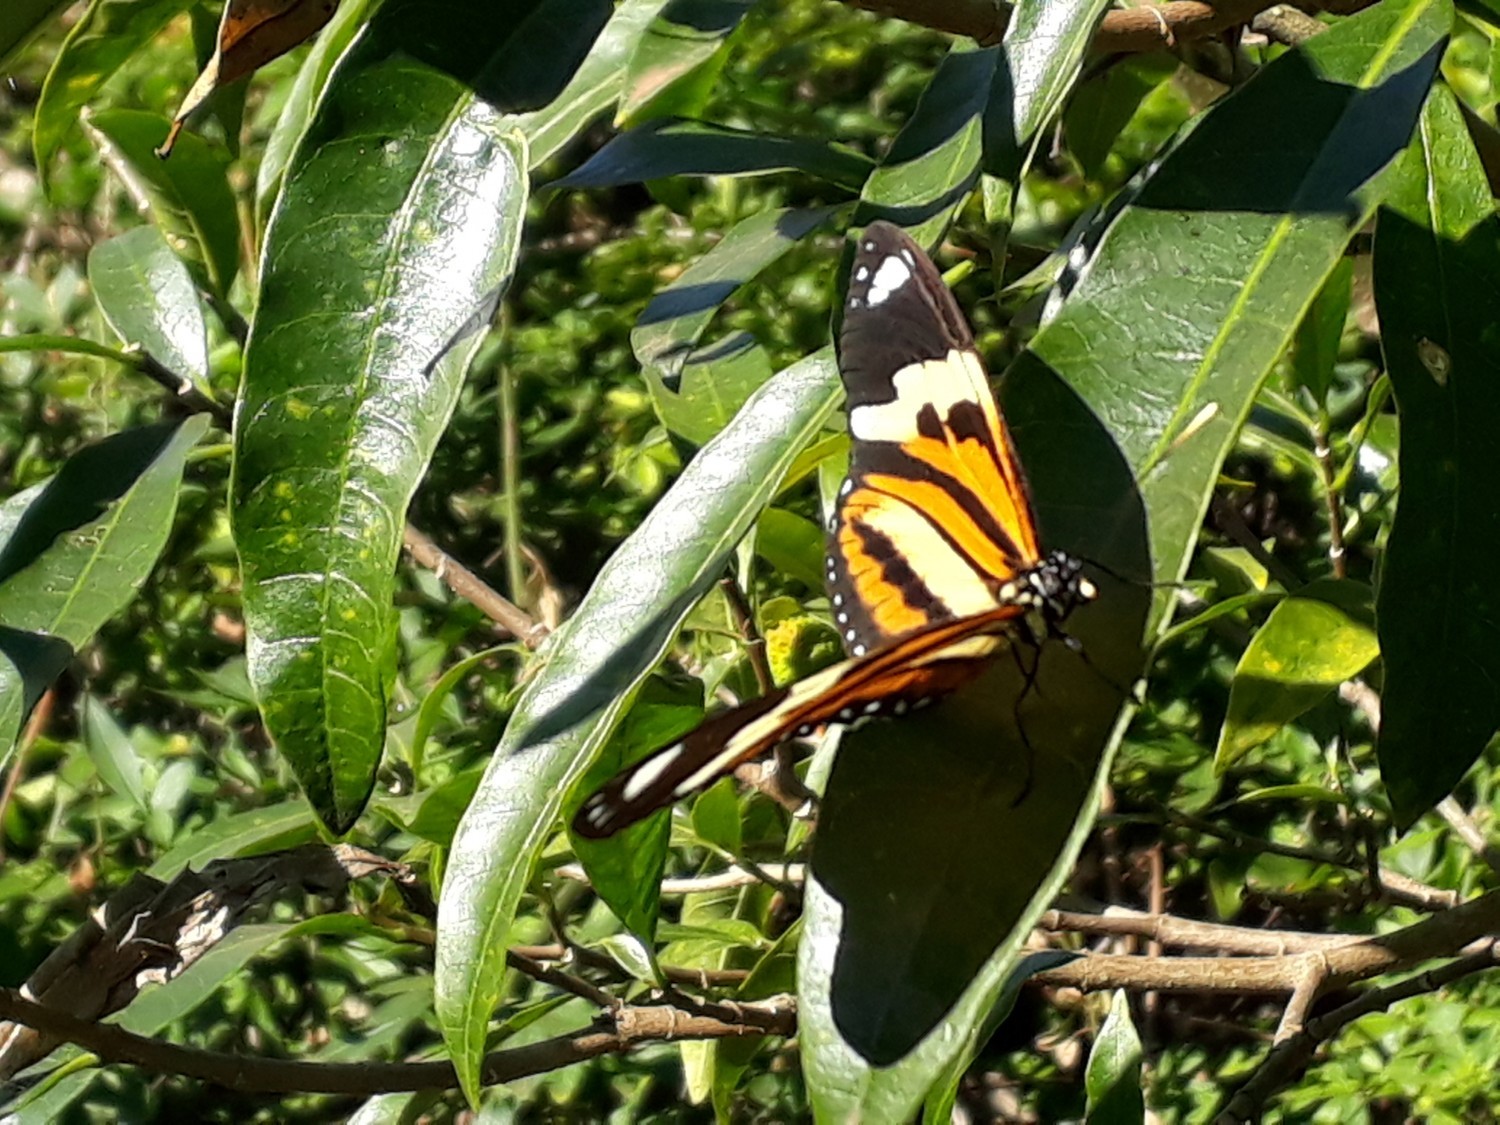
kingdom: Animalia
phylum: Arthropoda
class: Insecta
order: Lepidoptera
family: Nymphalidae
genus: Eueides
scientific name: Eueides isabella
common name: Isabella's longwing
